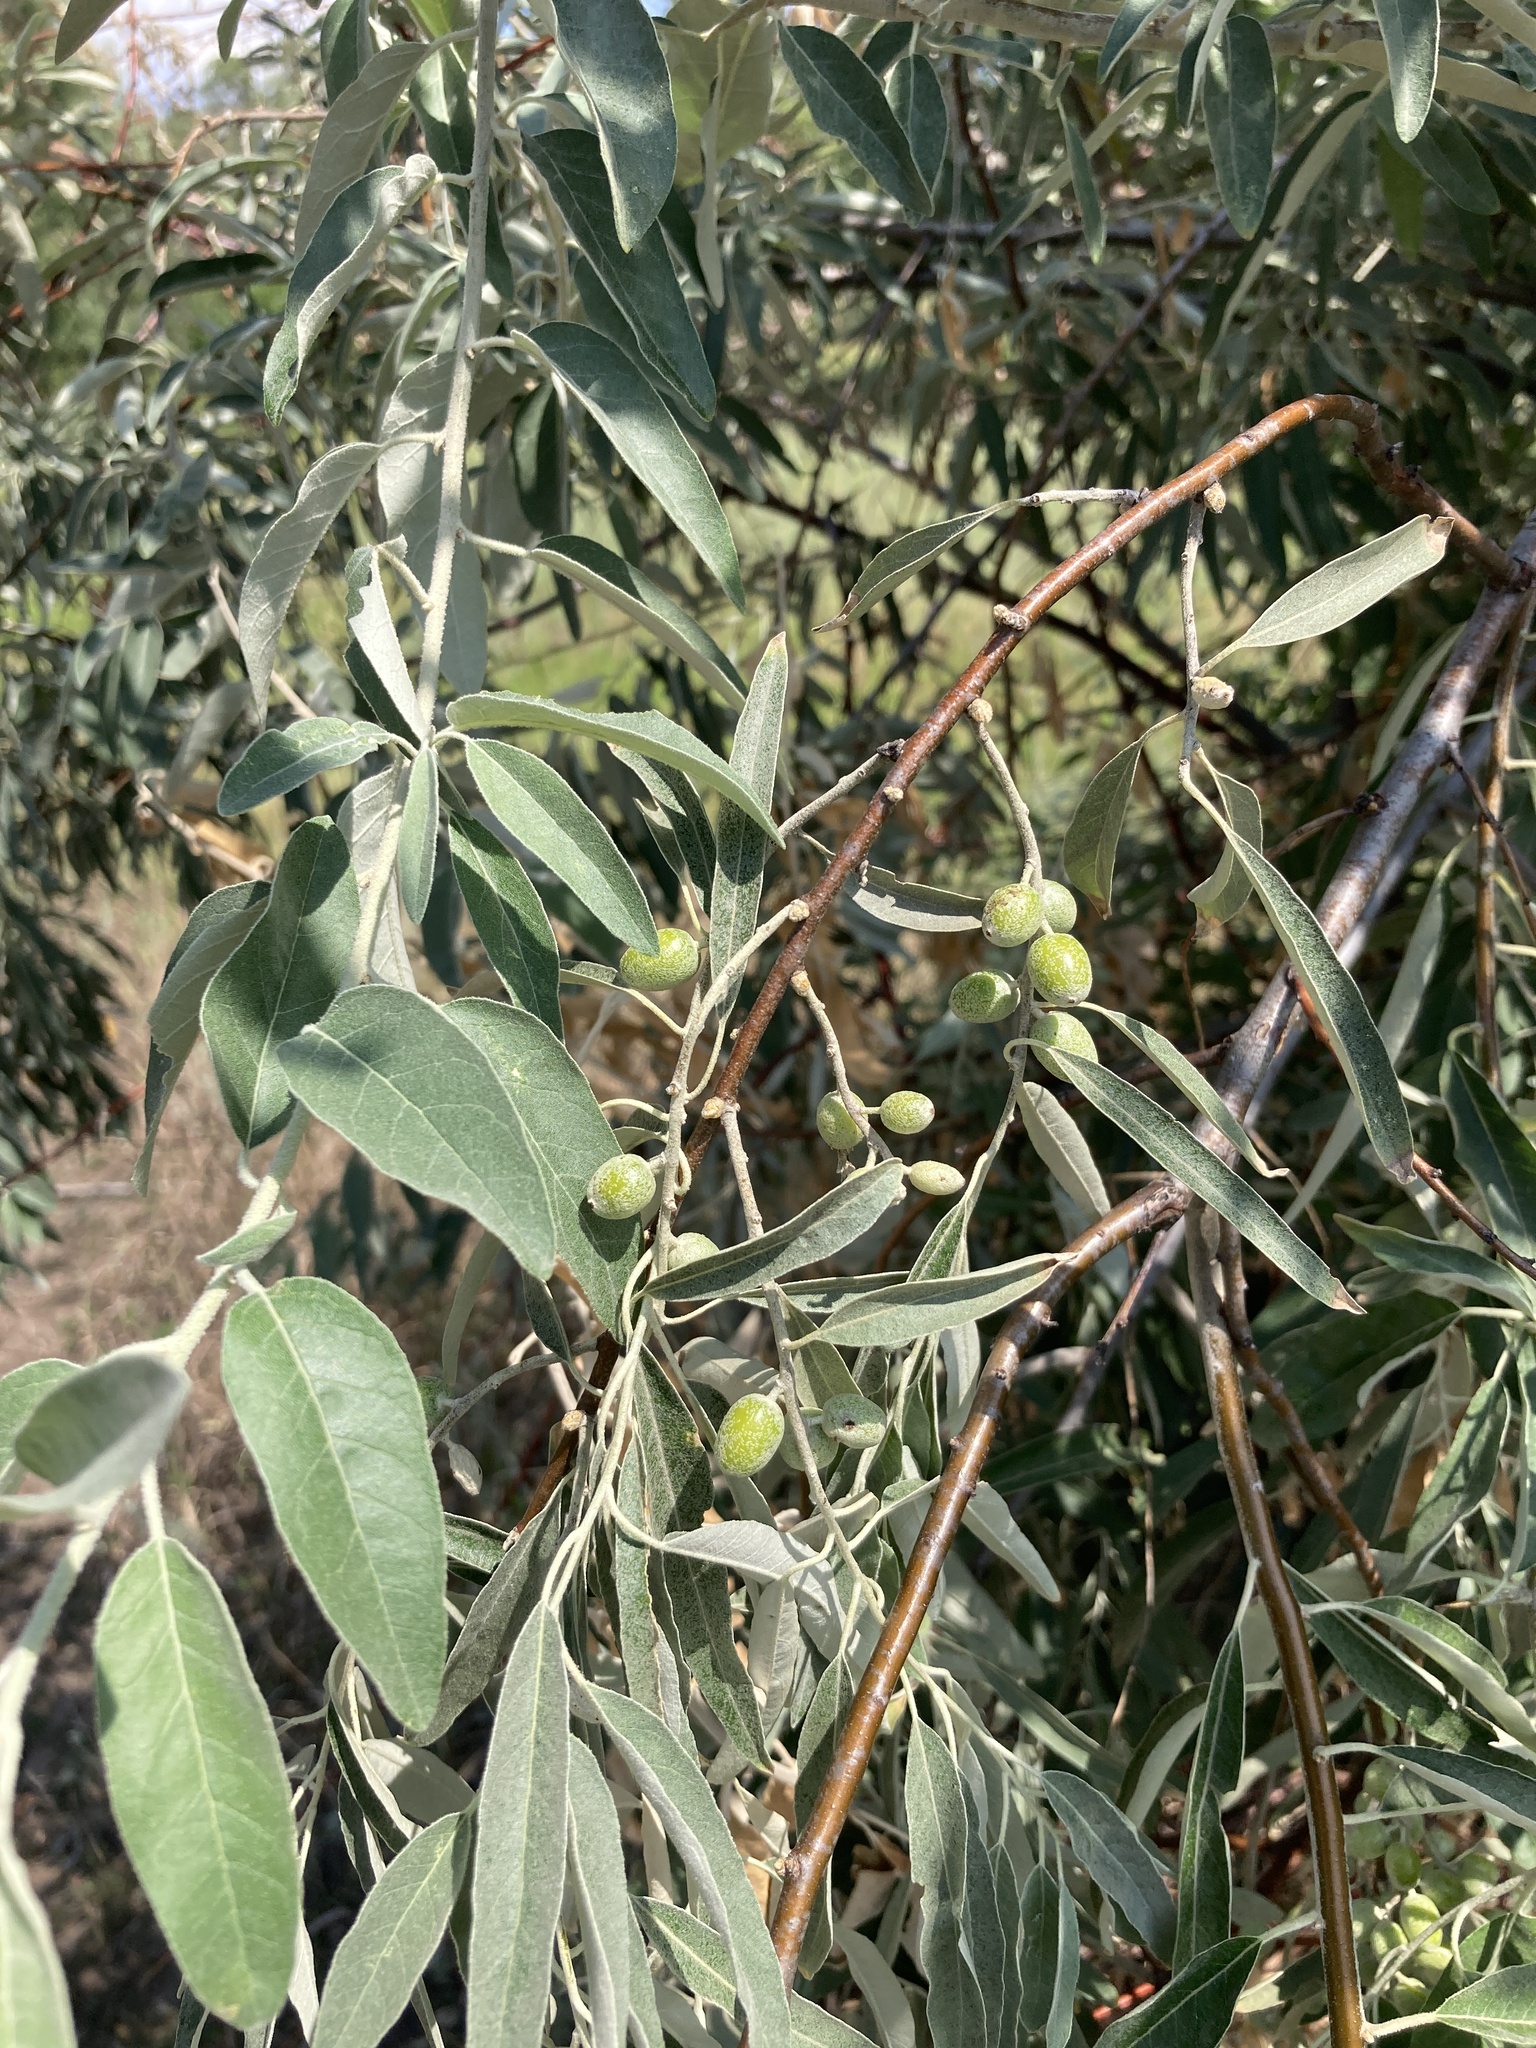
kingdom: Plantae
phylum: Tracheophyta
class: Magnoliopsida
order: Rosales
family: Elaeagnaceae
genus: Elaeagnus
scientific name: Elaeagnus angustifolia
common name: Russian olive
